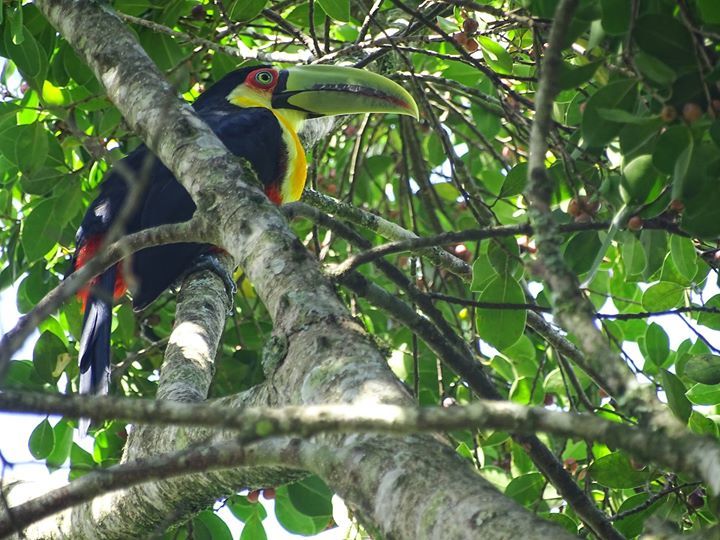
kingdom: Animalia
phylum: Chordata
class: Aves
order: Piciformes
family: Ramphastidae
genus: Ramphastos
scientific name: Ramphastos dicolorus
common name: Green-billed toucan
